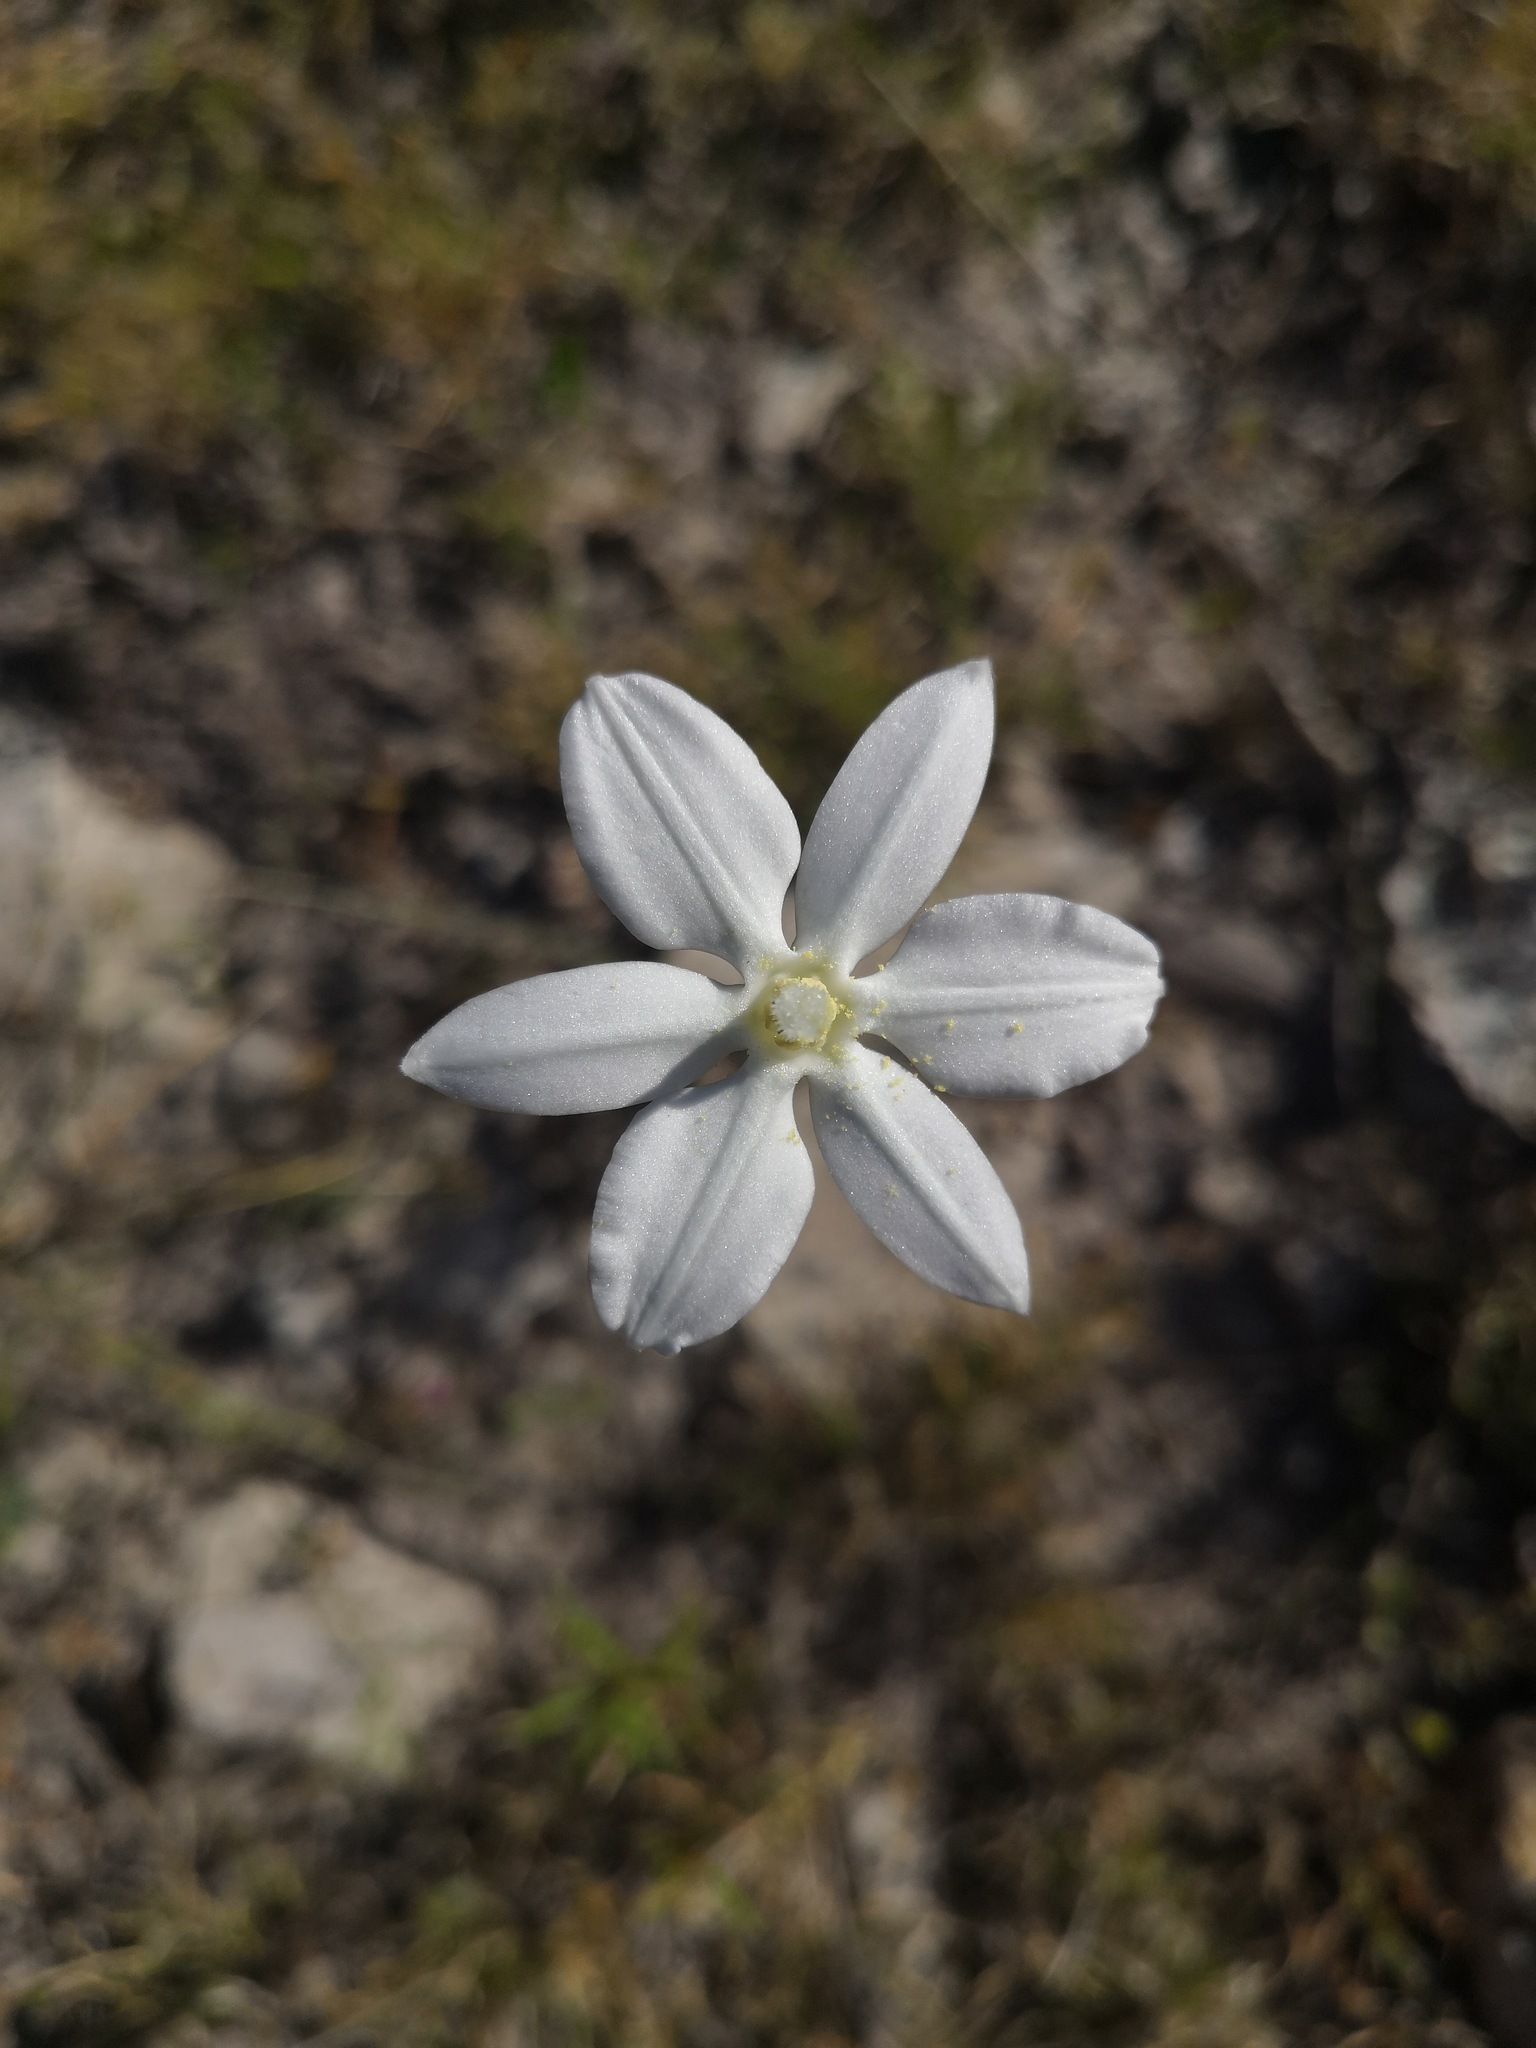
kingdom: Plantae
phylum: Tracheophyta
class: Liliopsida
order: Asparagales
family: Asparagaceae
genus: Milla
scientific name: Milla biflora
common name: Mexican-star
